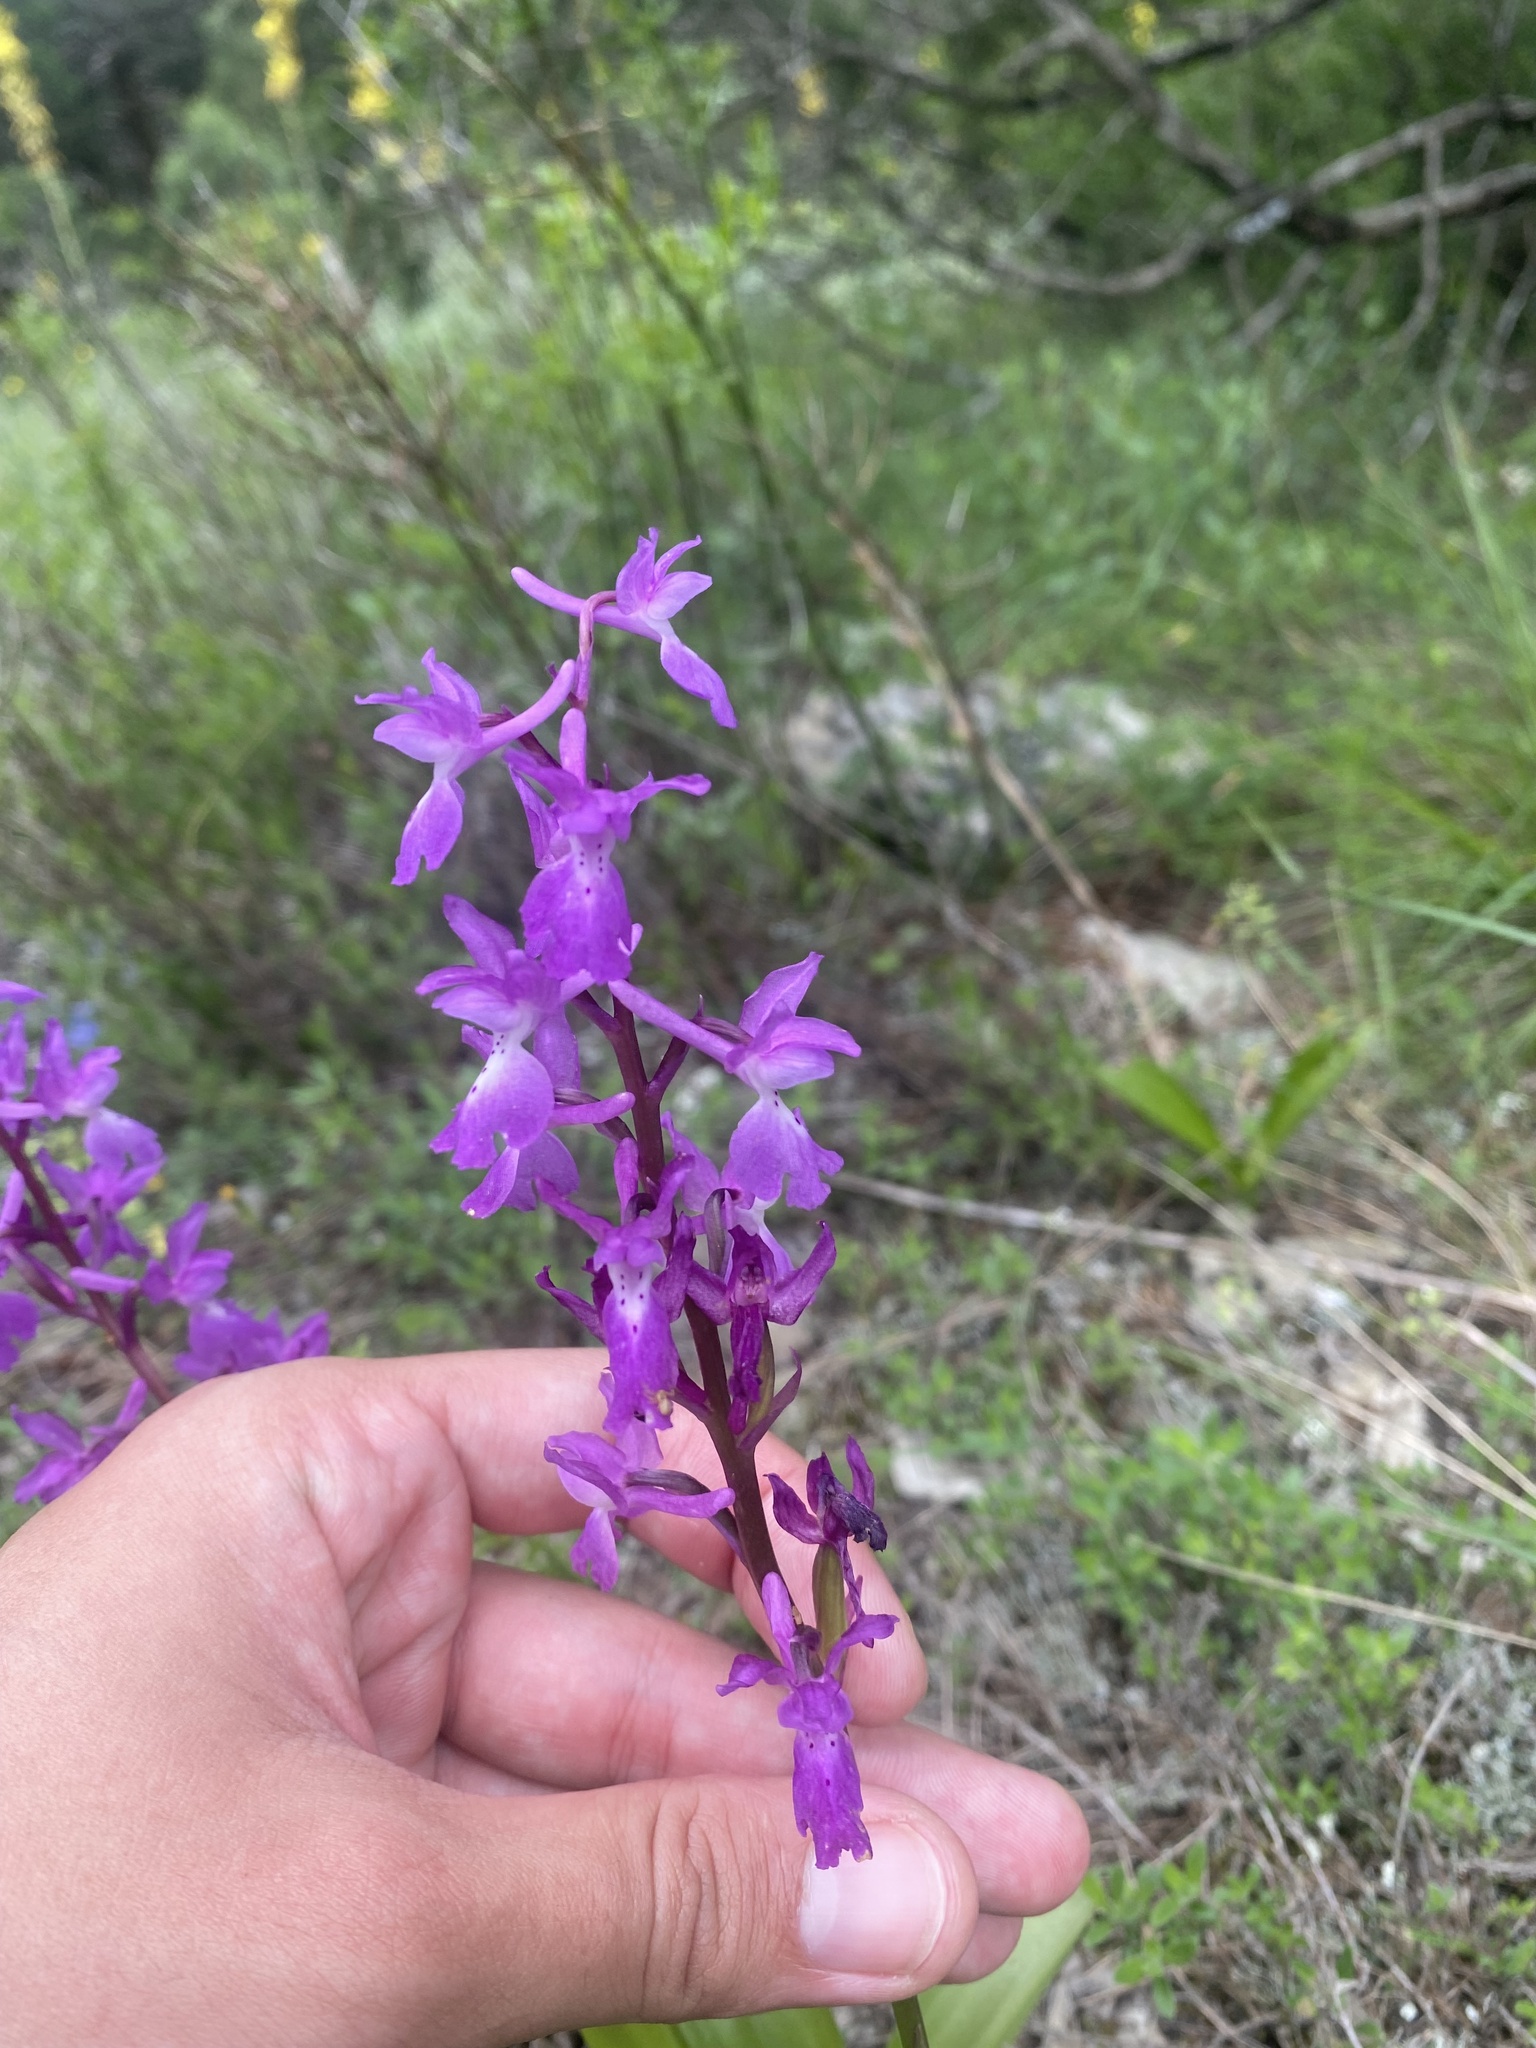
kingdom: Plantae
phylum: Tracheophyta
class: Liliopsida
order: Asparagales
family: Orchidaceae
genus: Orchis
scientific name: Orchis mascula
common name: Early-purple orchid
